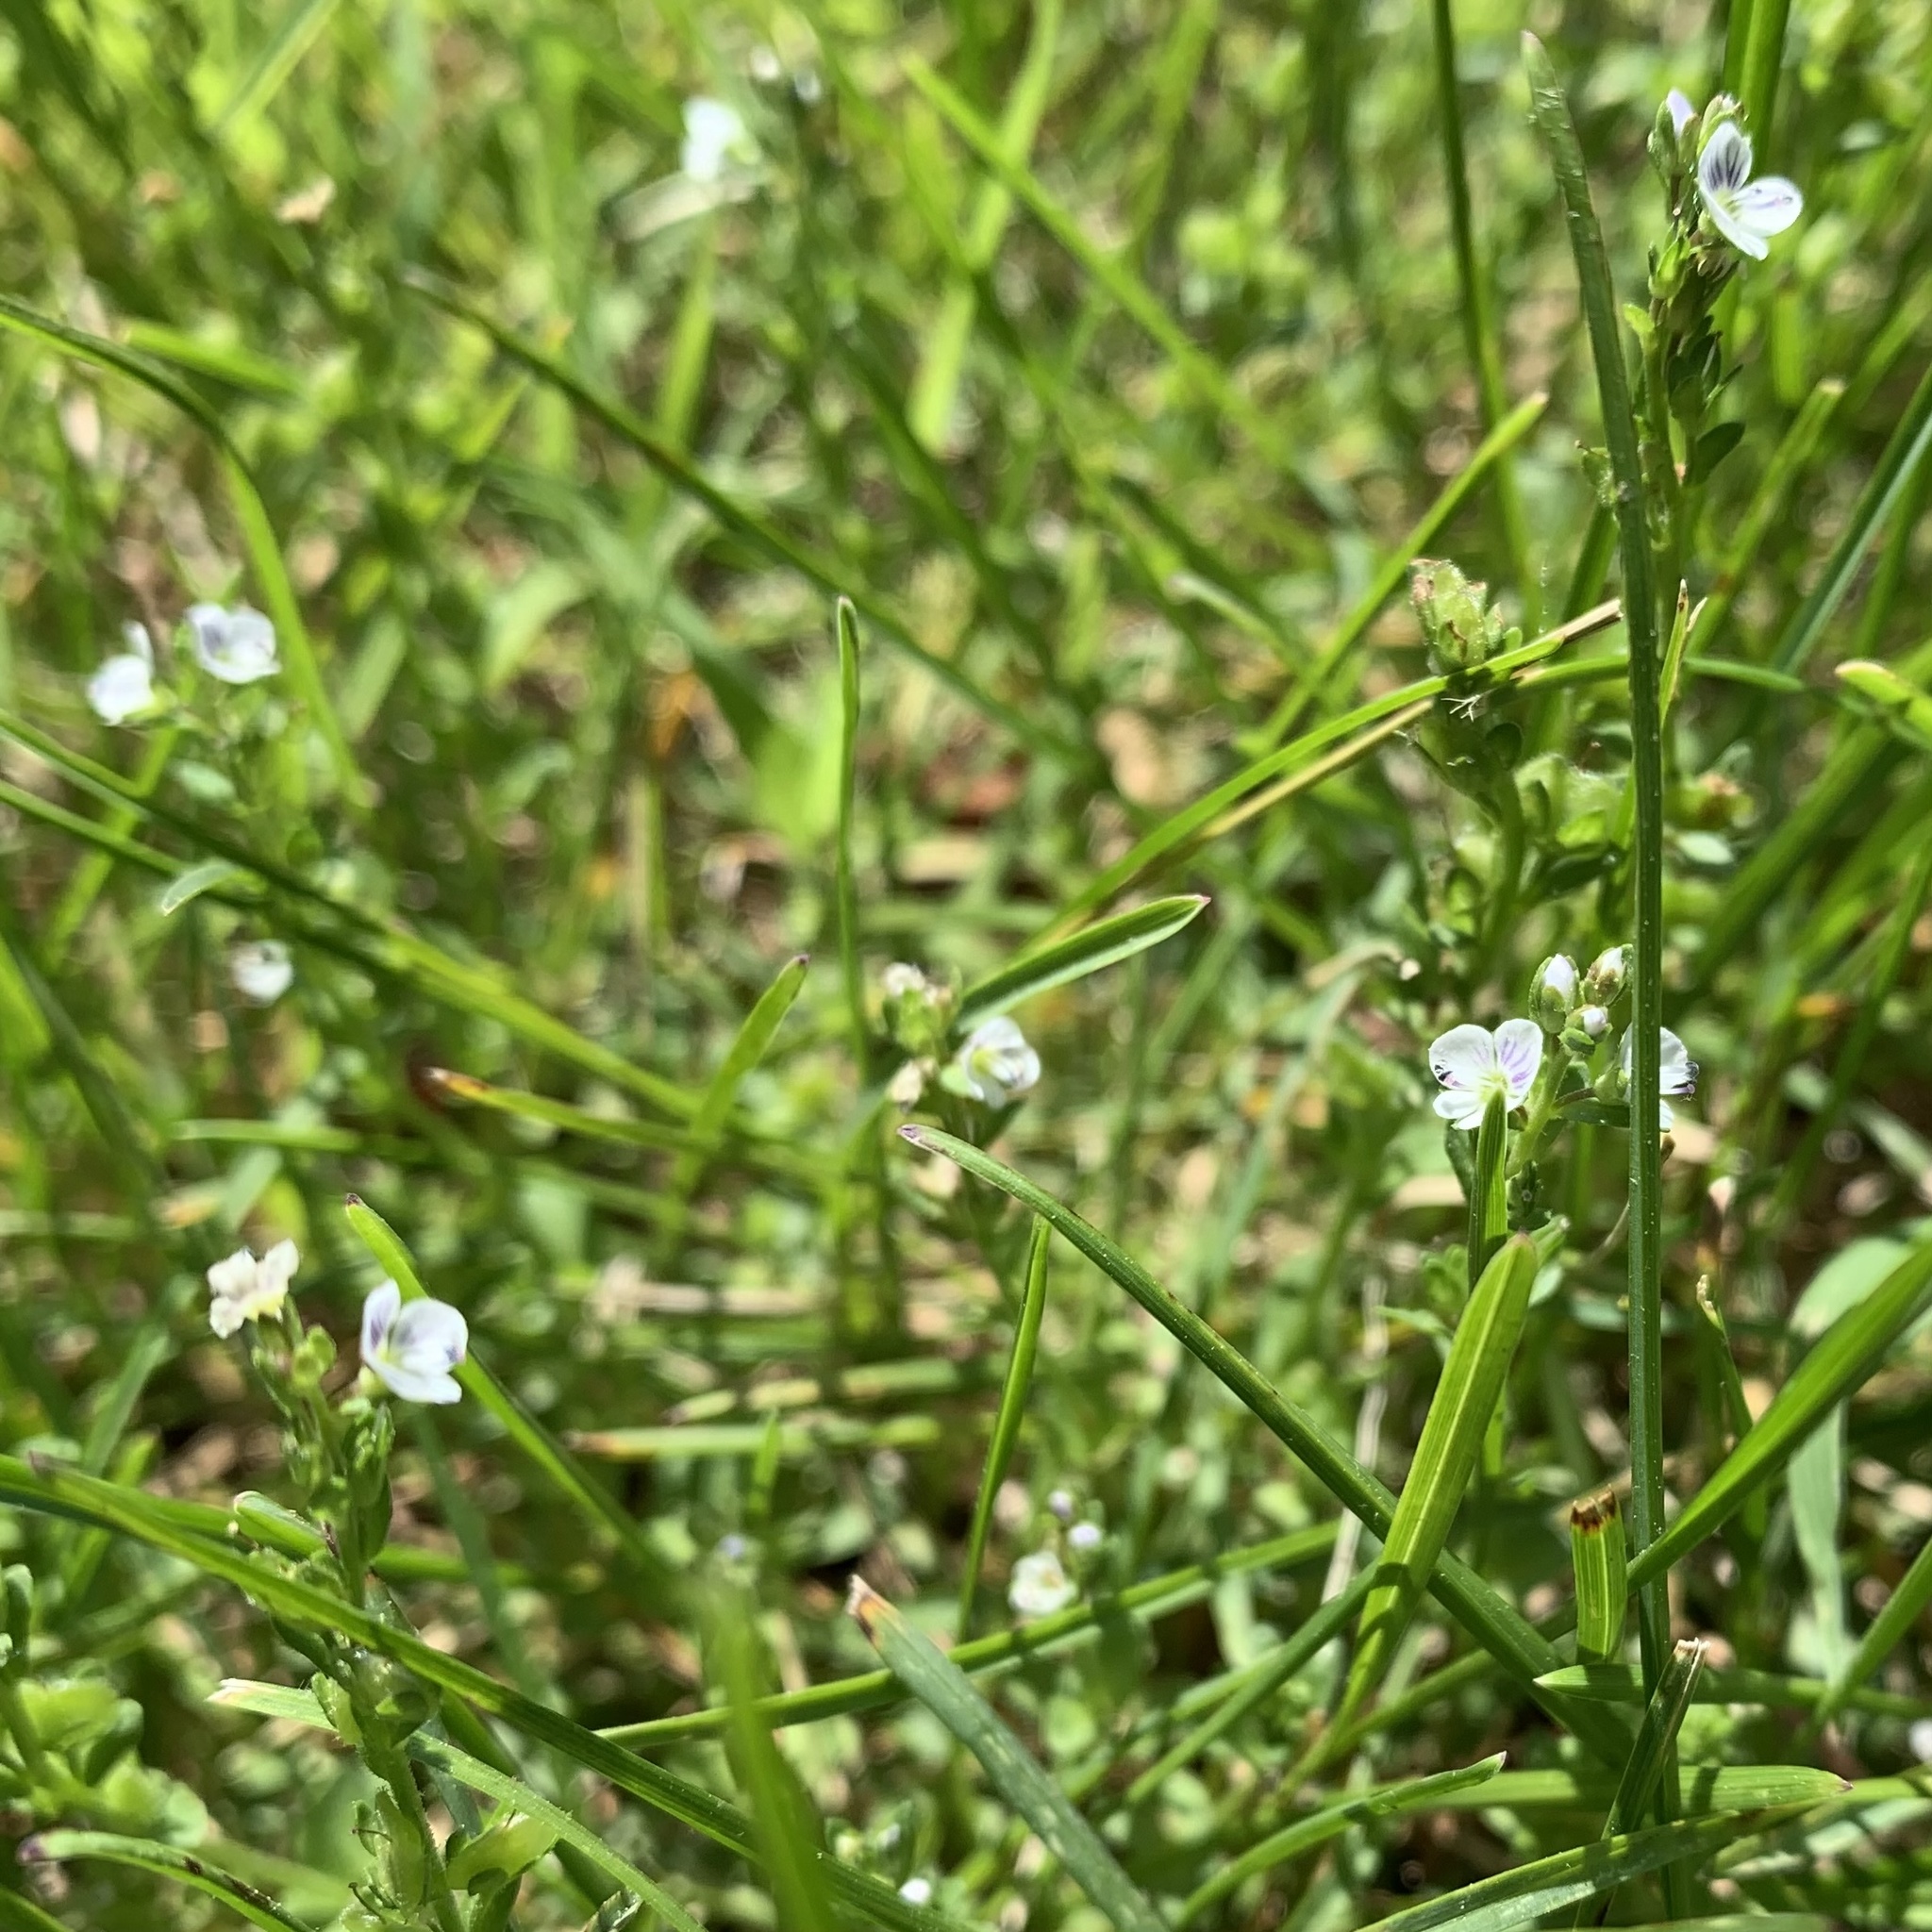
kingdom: Plantae
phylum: Tracheophyta
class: Magnoliopsida
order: Lamiales
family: Plantaginaceae
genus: Veronica
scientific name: Veronica serpyllifolia
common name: Thyme-leaved speedwell
